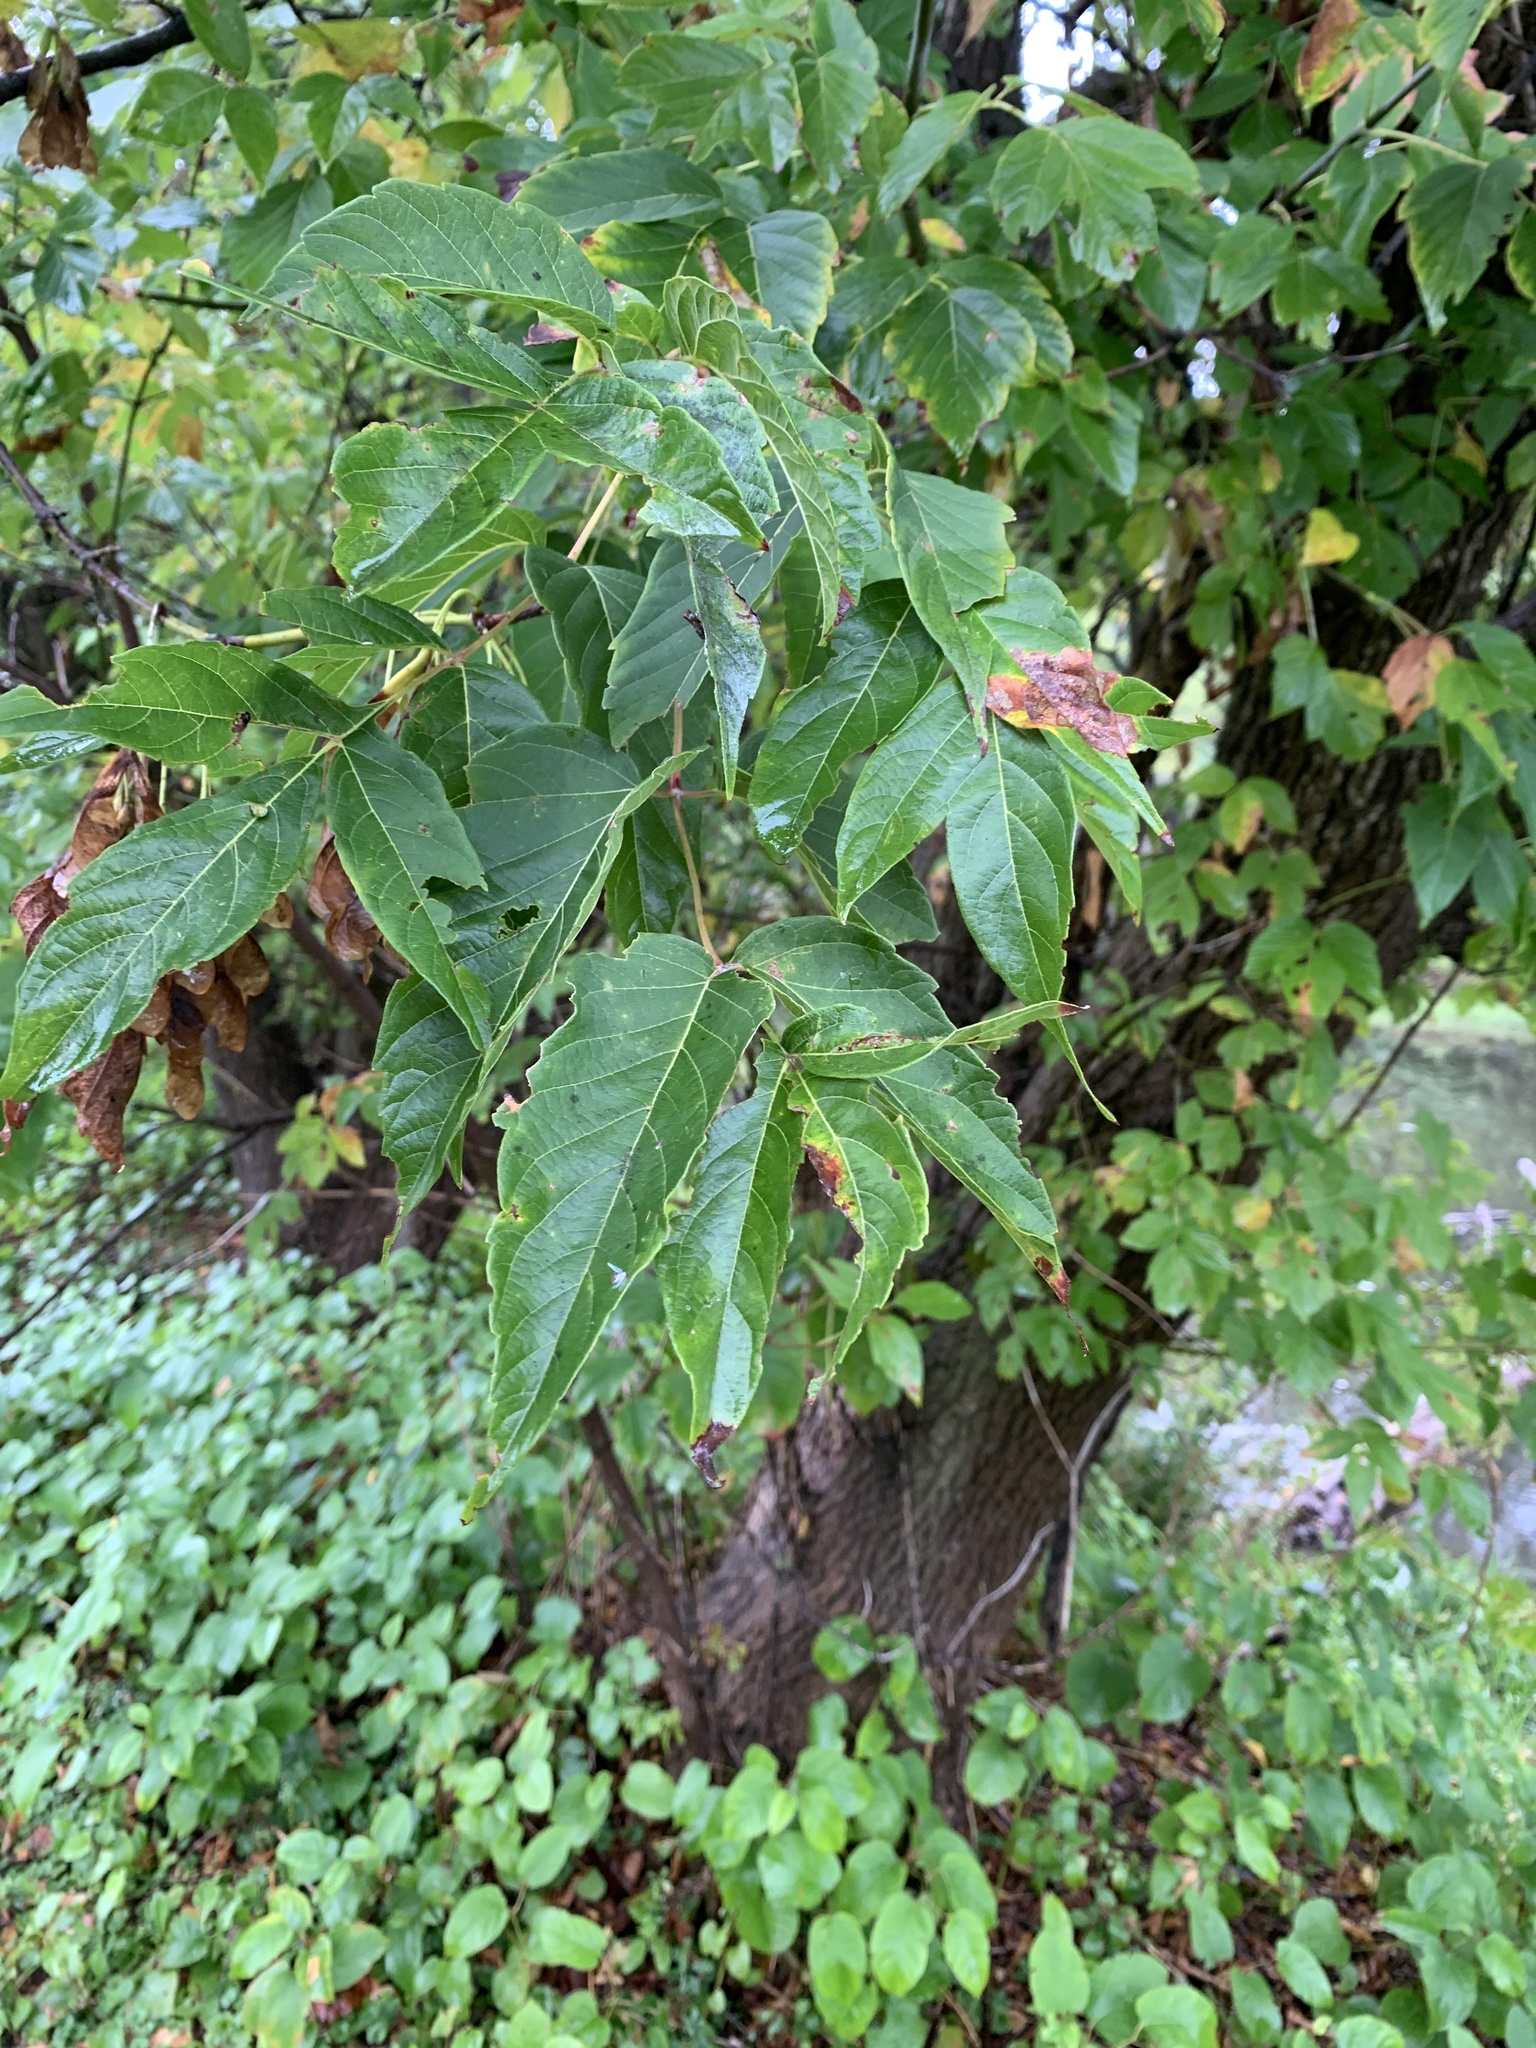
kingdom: Plantae
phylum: Tracheophyta
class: Magnoliopsida
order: Sapindales
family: Sapindaceae
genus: Acer
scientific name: Acer negundo
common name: Ashleaf maple
